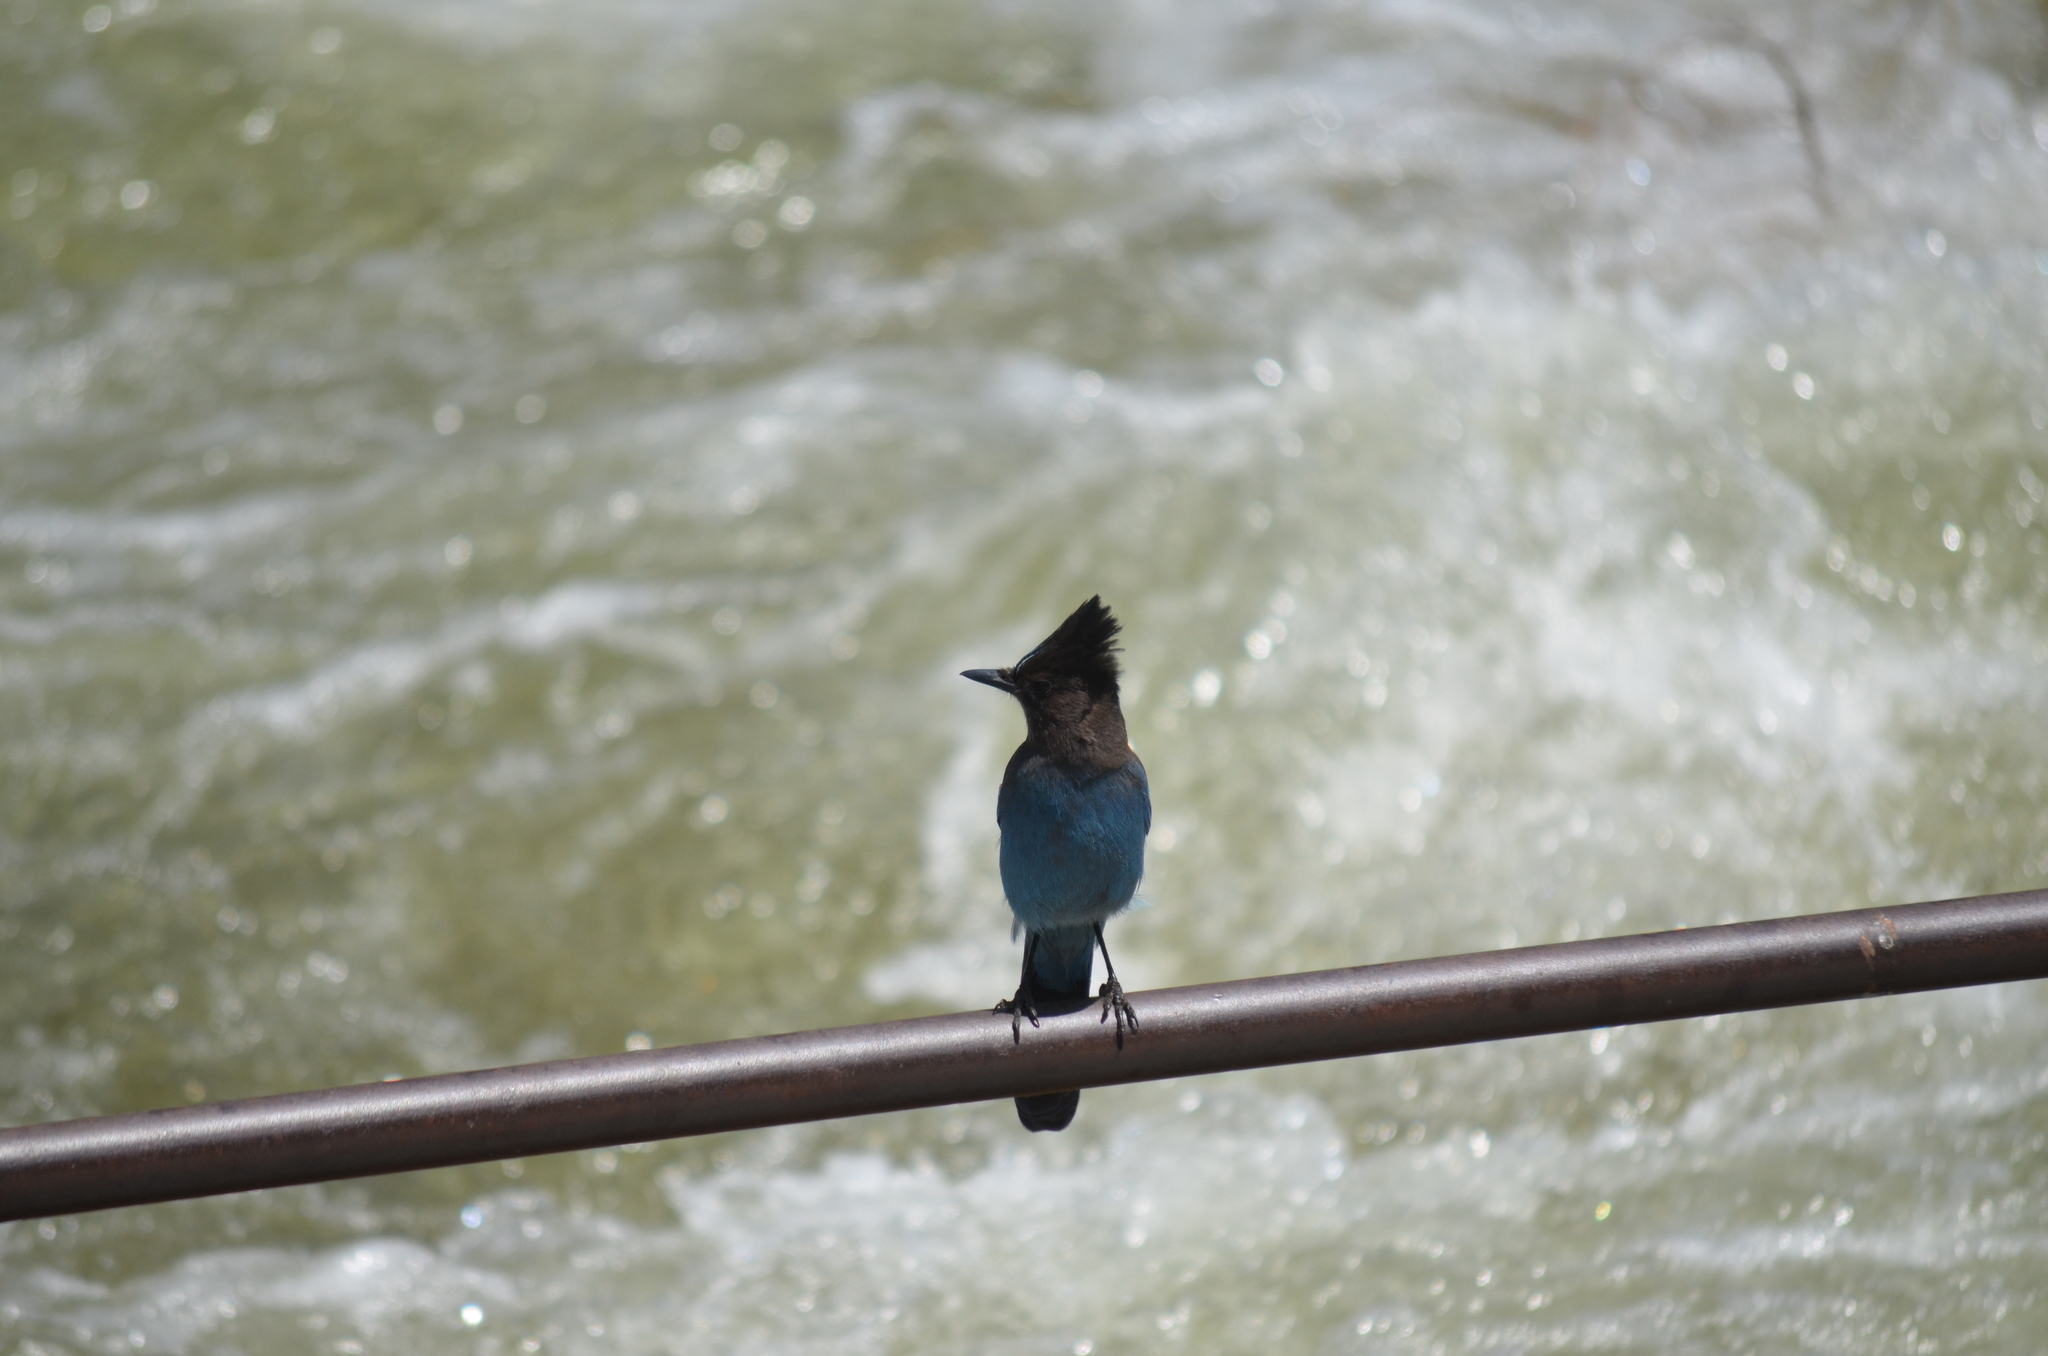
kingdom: Animalia
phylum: Chordata
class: Aves
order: Passeriformes
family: Corvidae
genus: Cyanocitta
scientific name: Cyanocitta stelleri
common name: Steller's jay
